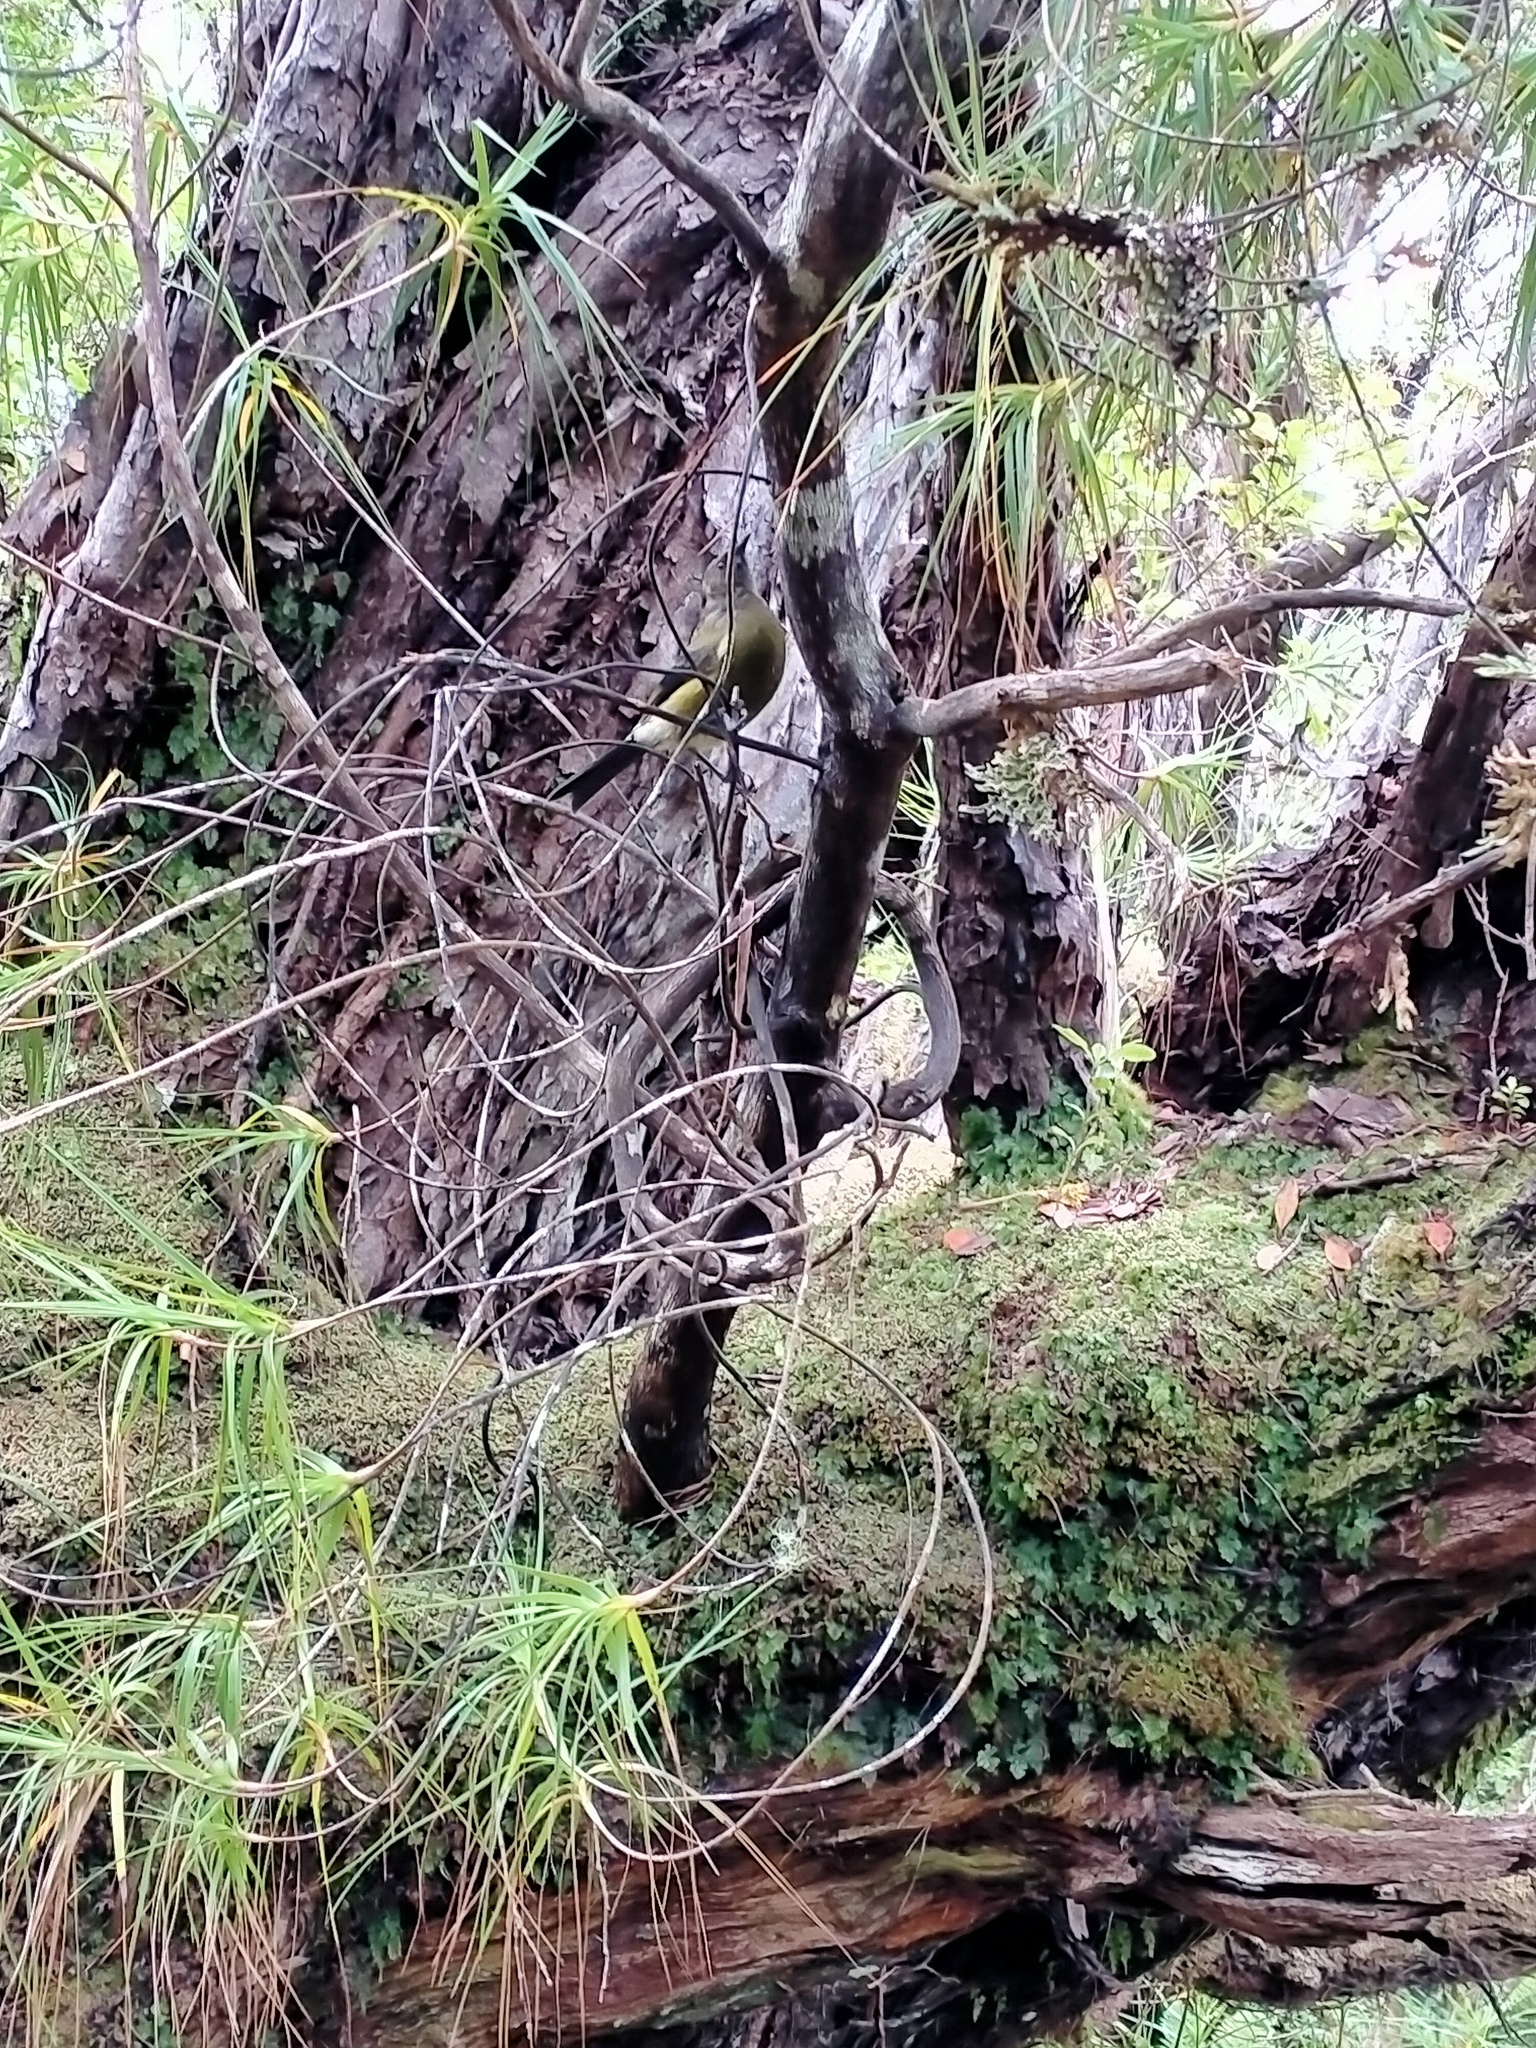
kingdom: Animalia
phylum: Chordata
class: Aves
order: Passeriformes
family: Meliphagidae
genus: Anthornis
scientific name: Anthornis melanura
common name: New zealand bellbird
